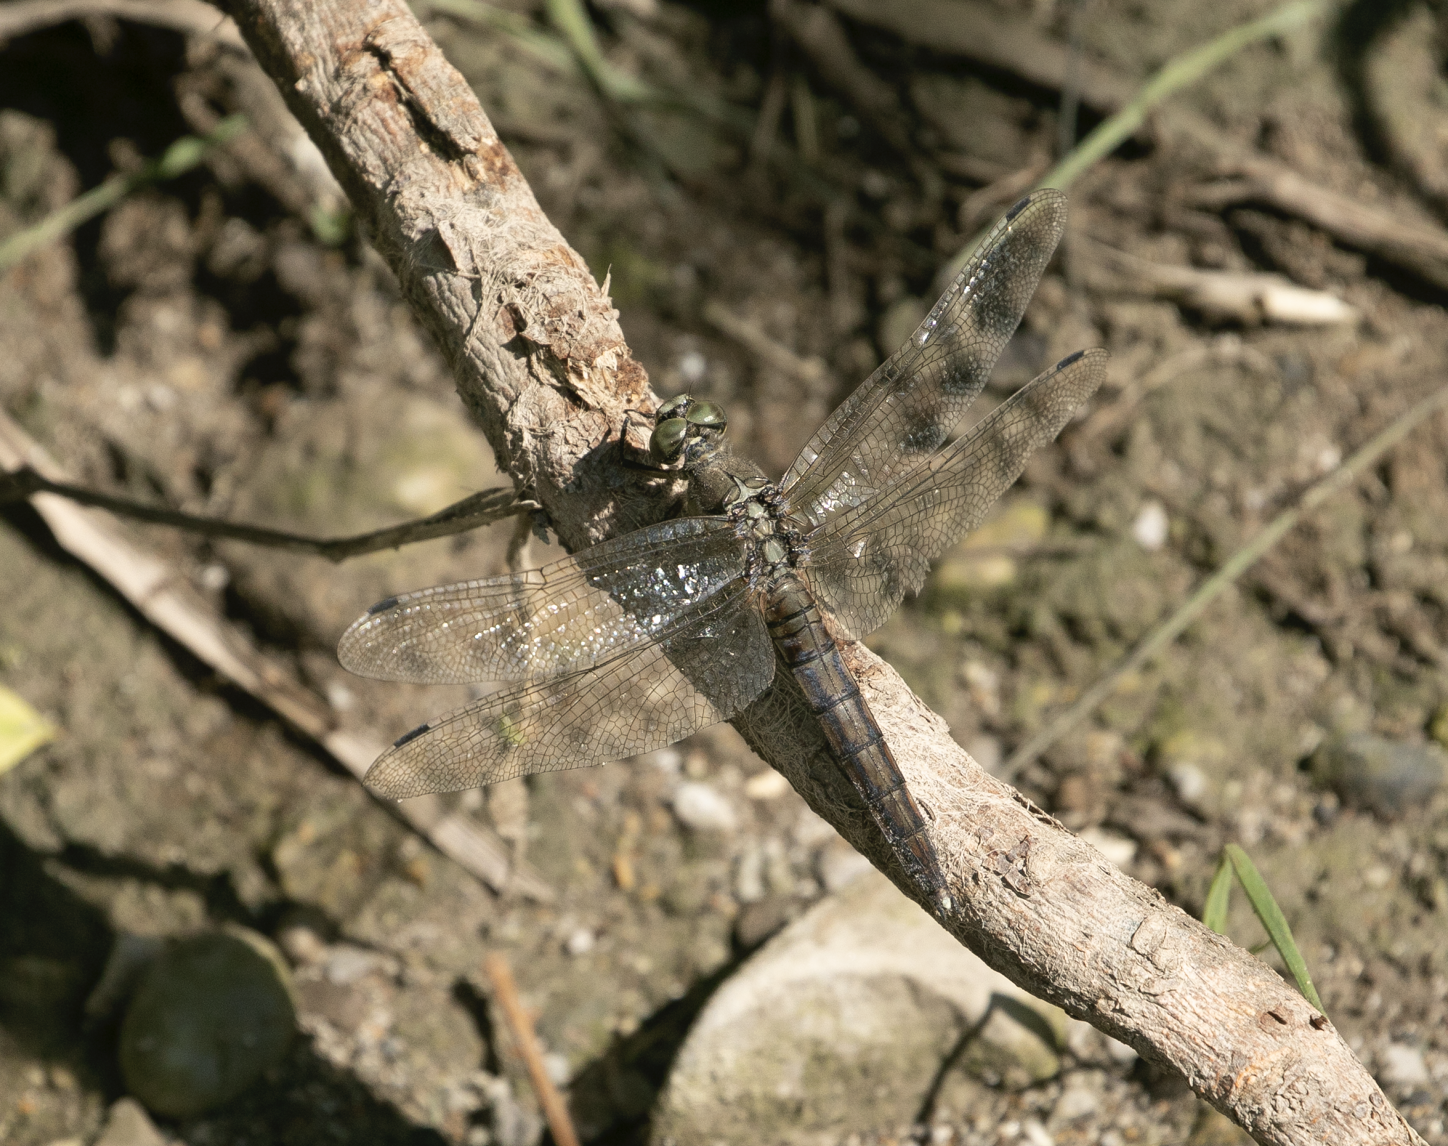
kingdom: Animalia
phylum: Arthropoda
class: Insecta
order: Odonata
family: Libellulidae
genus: Orthetrum
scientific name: Orthetrum cancellatum
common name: Black-tailed skimmer
